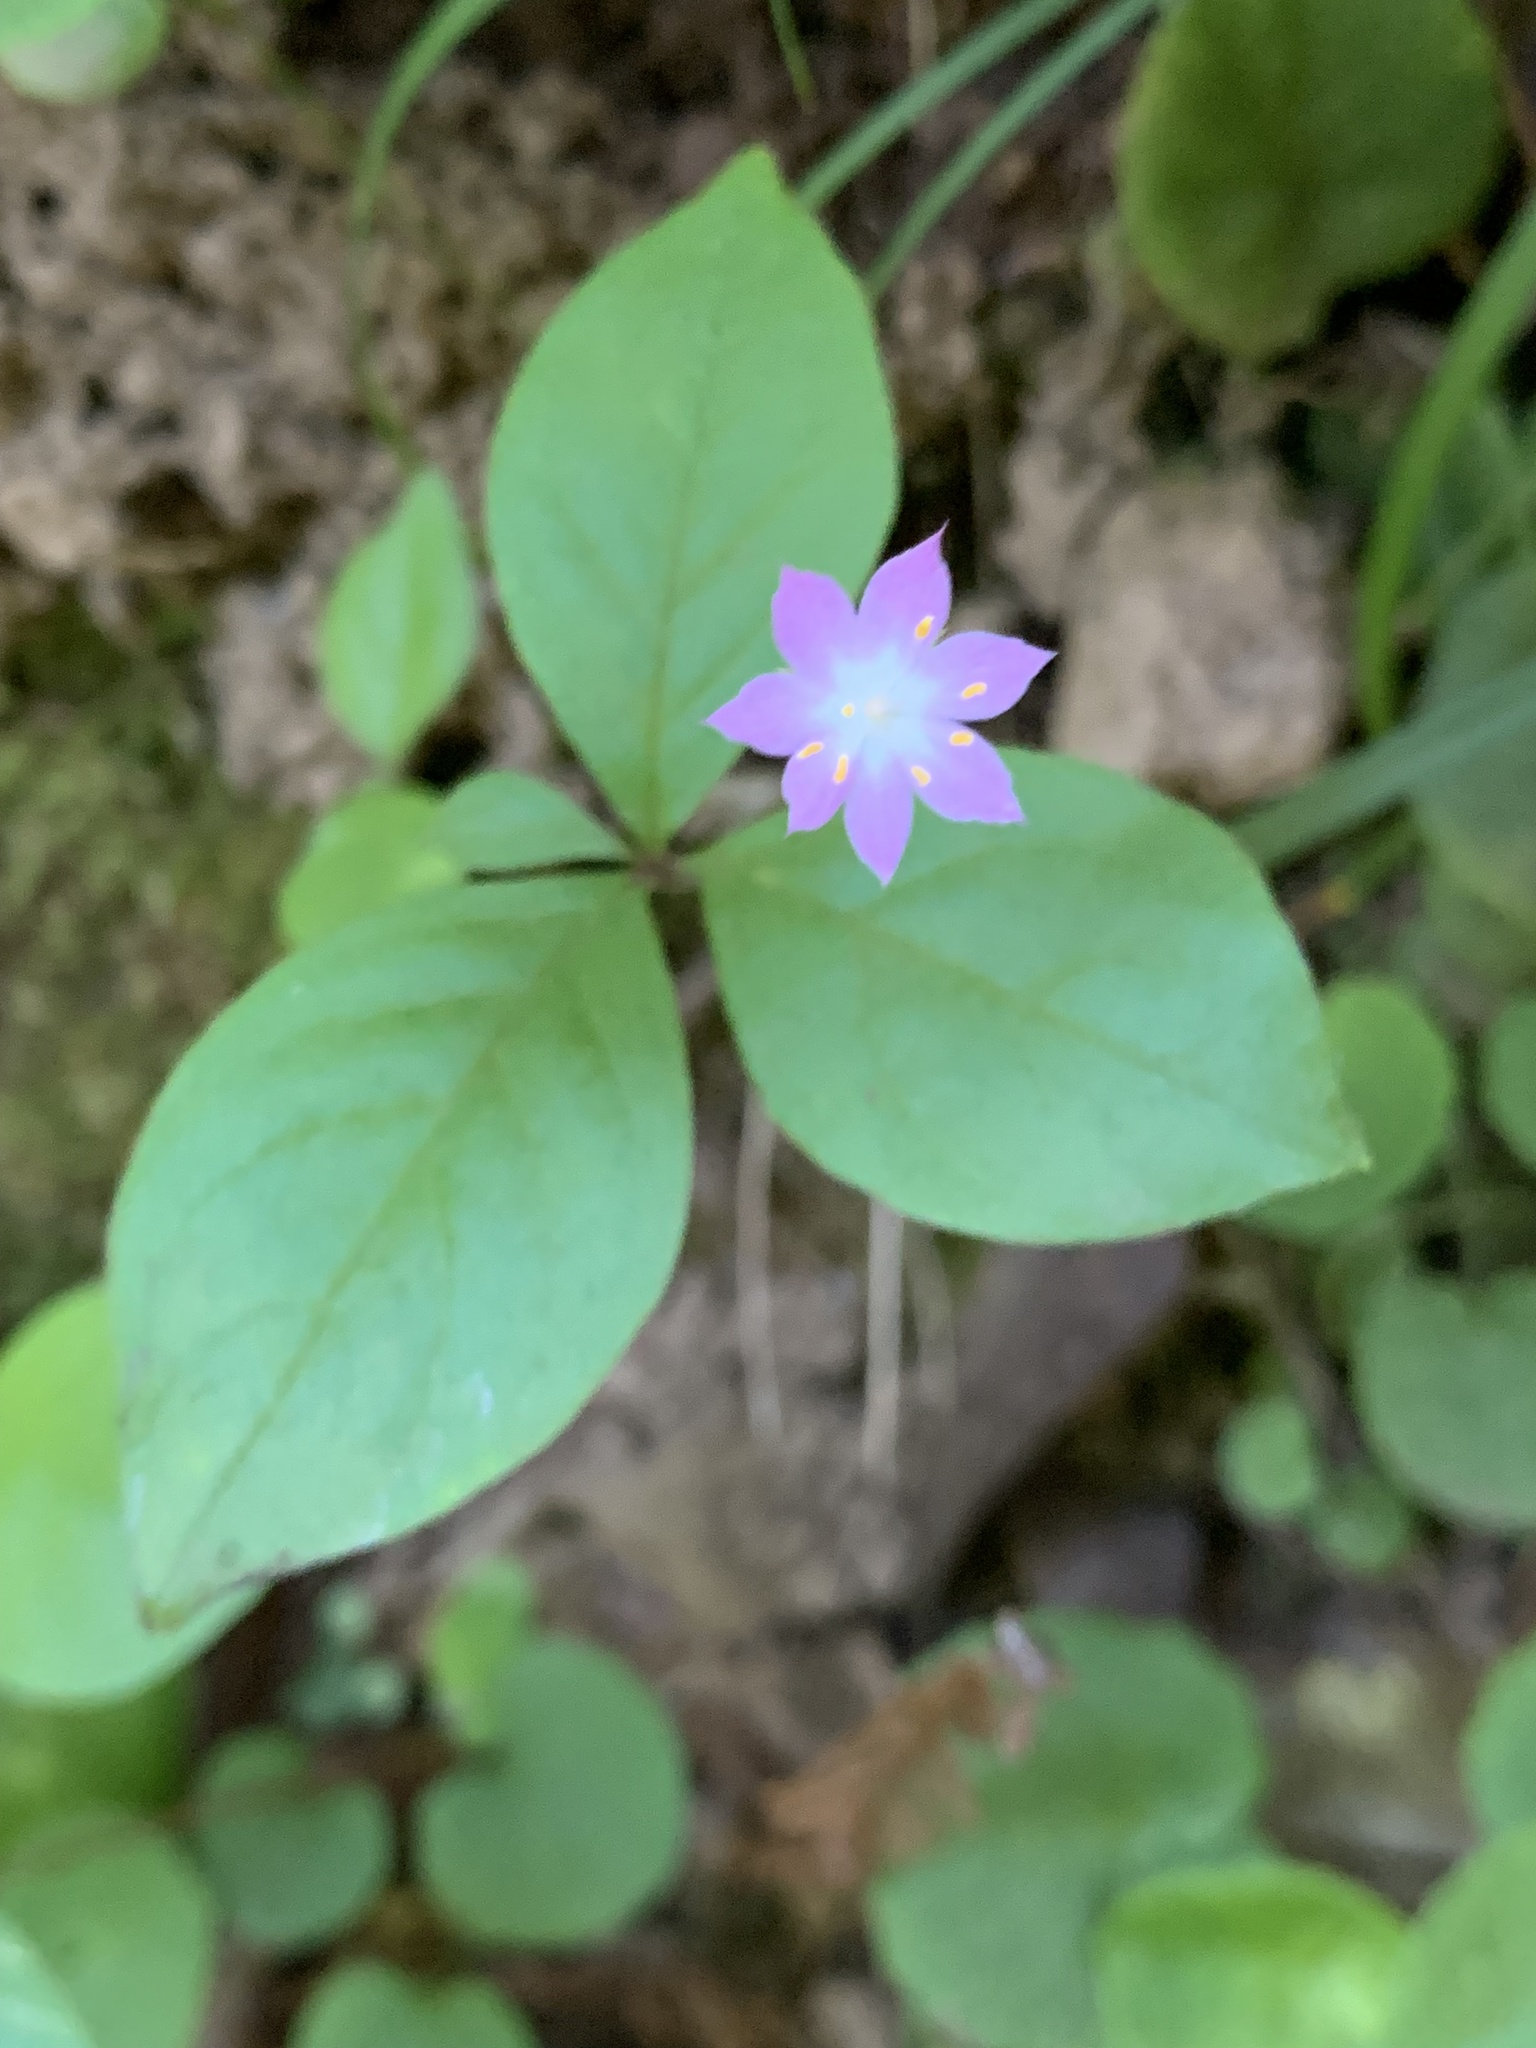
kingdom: Plantae
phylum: Tracheophyta
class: Magnoliopsida
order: Ericales
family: Primulaceae
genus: Lysimachia
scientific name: Lysimachia latifolia
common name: Pacific starflower
